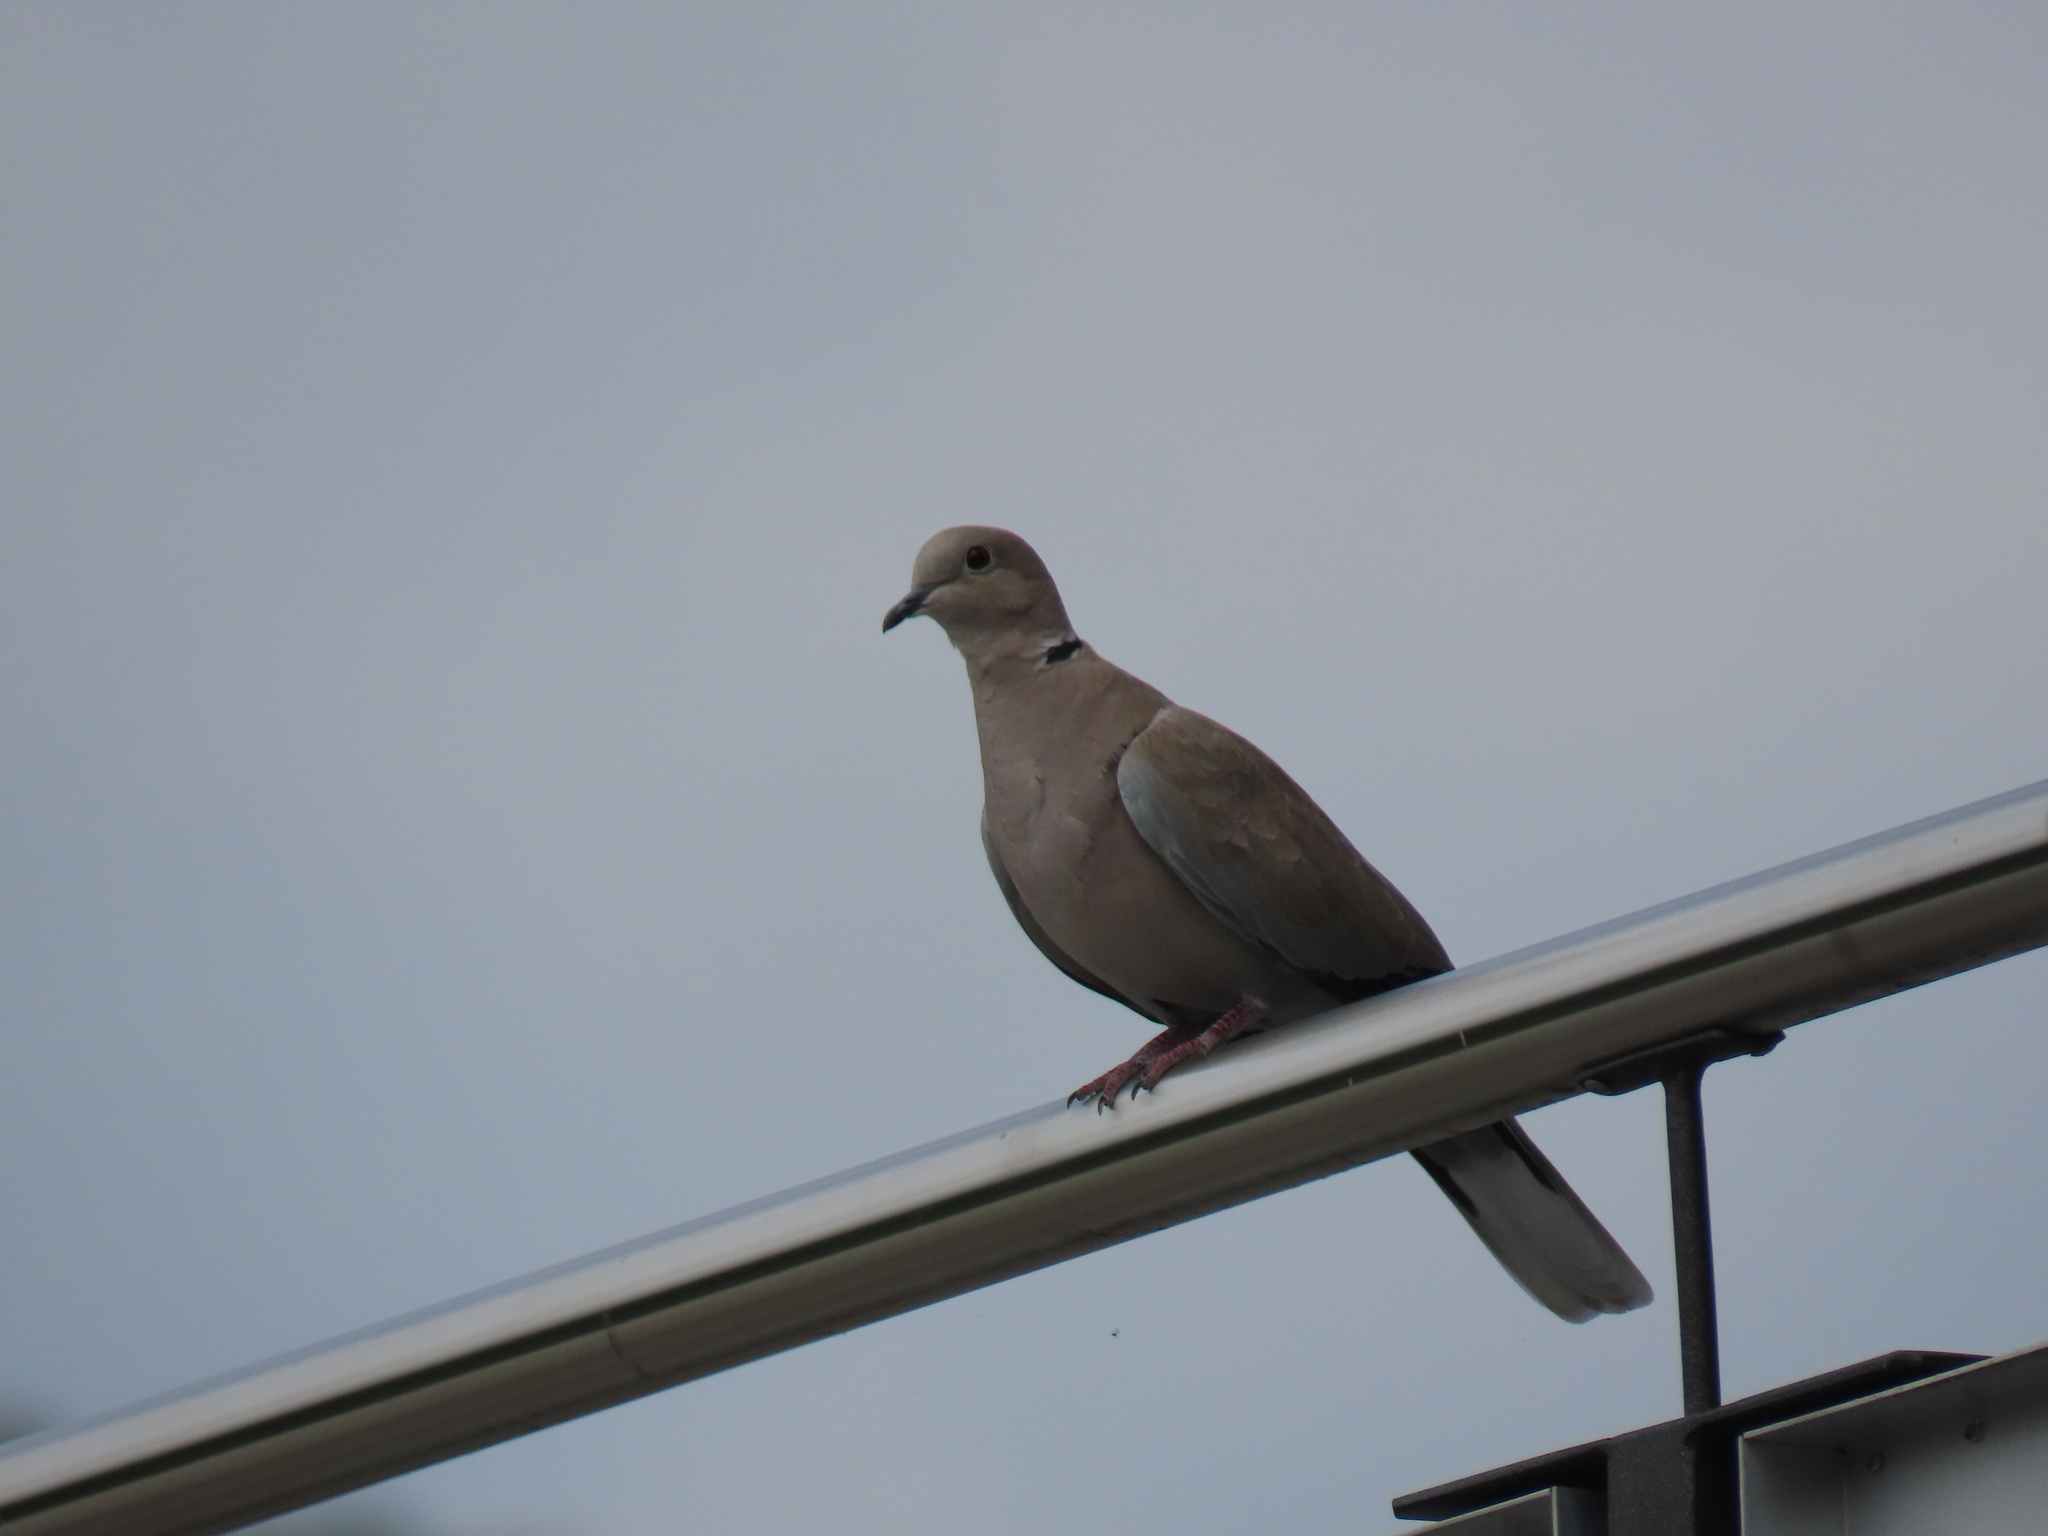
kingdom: Animalia
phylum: Chordata
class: Aves
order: Columbiformes
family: Columbidae
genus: Streptopelia
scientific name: Streptopelia decaocto
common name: Eurasian collared dove
